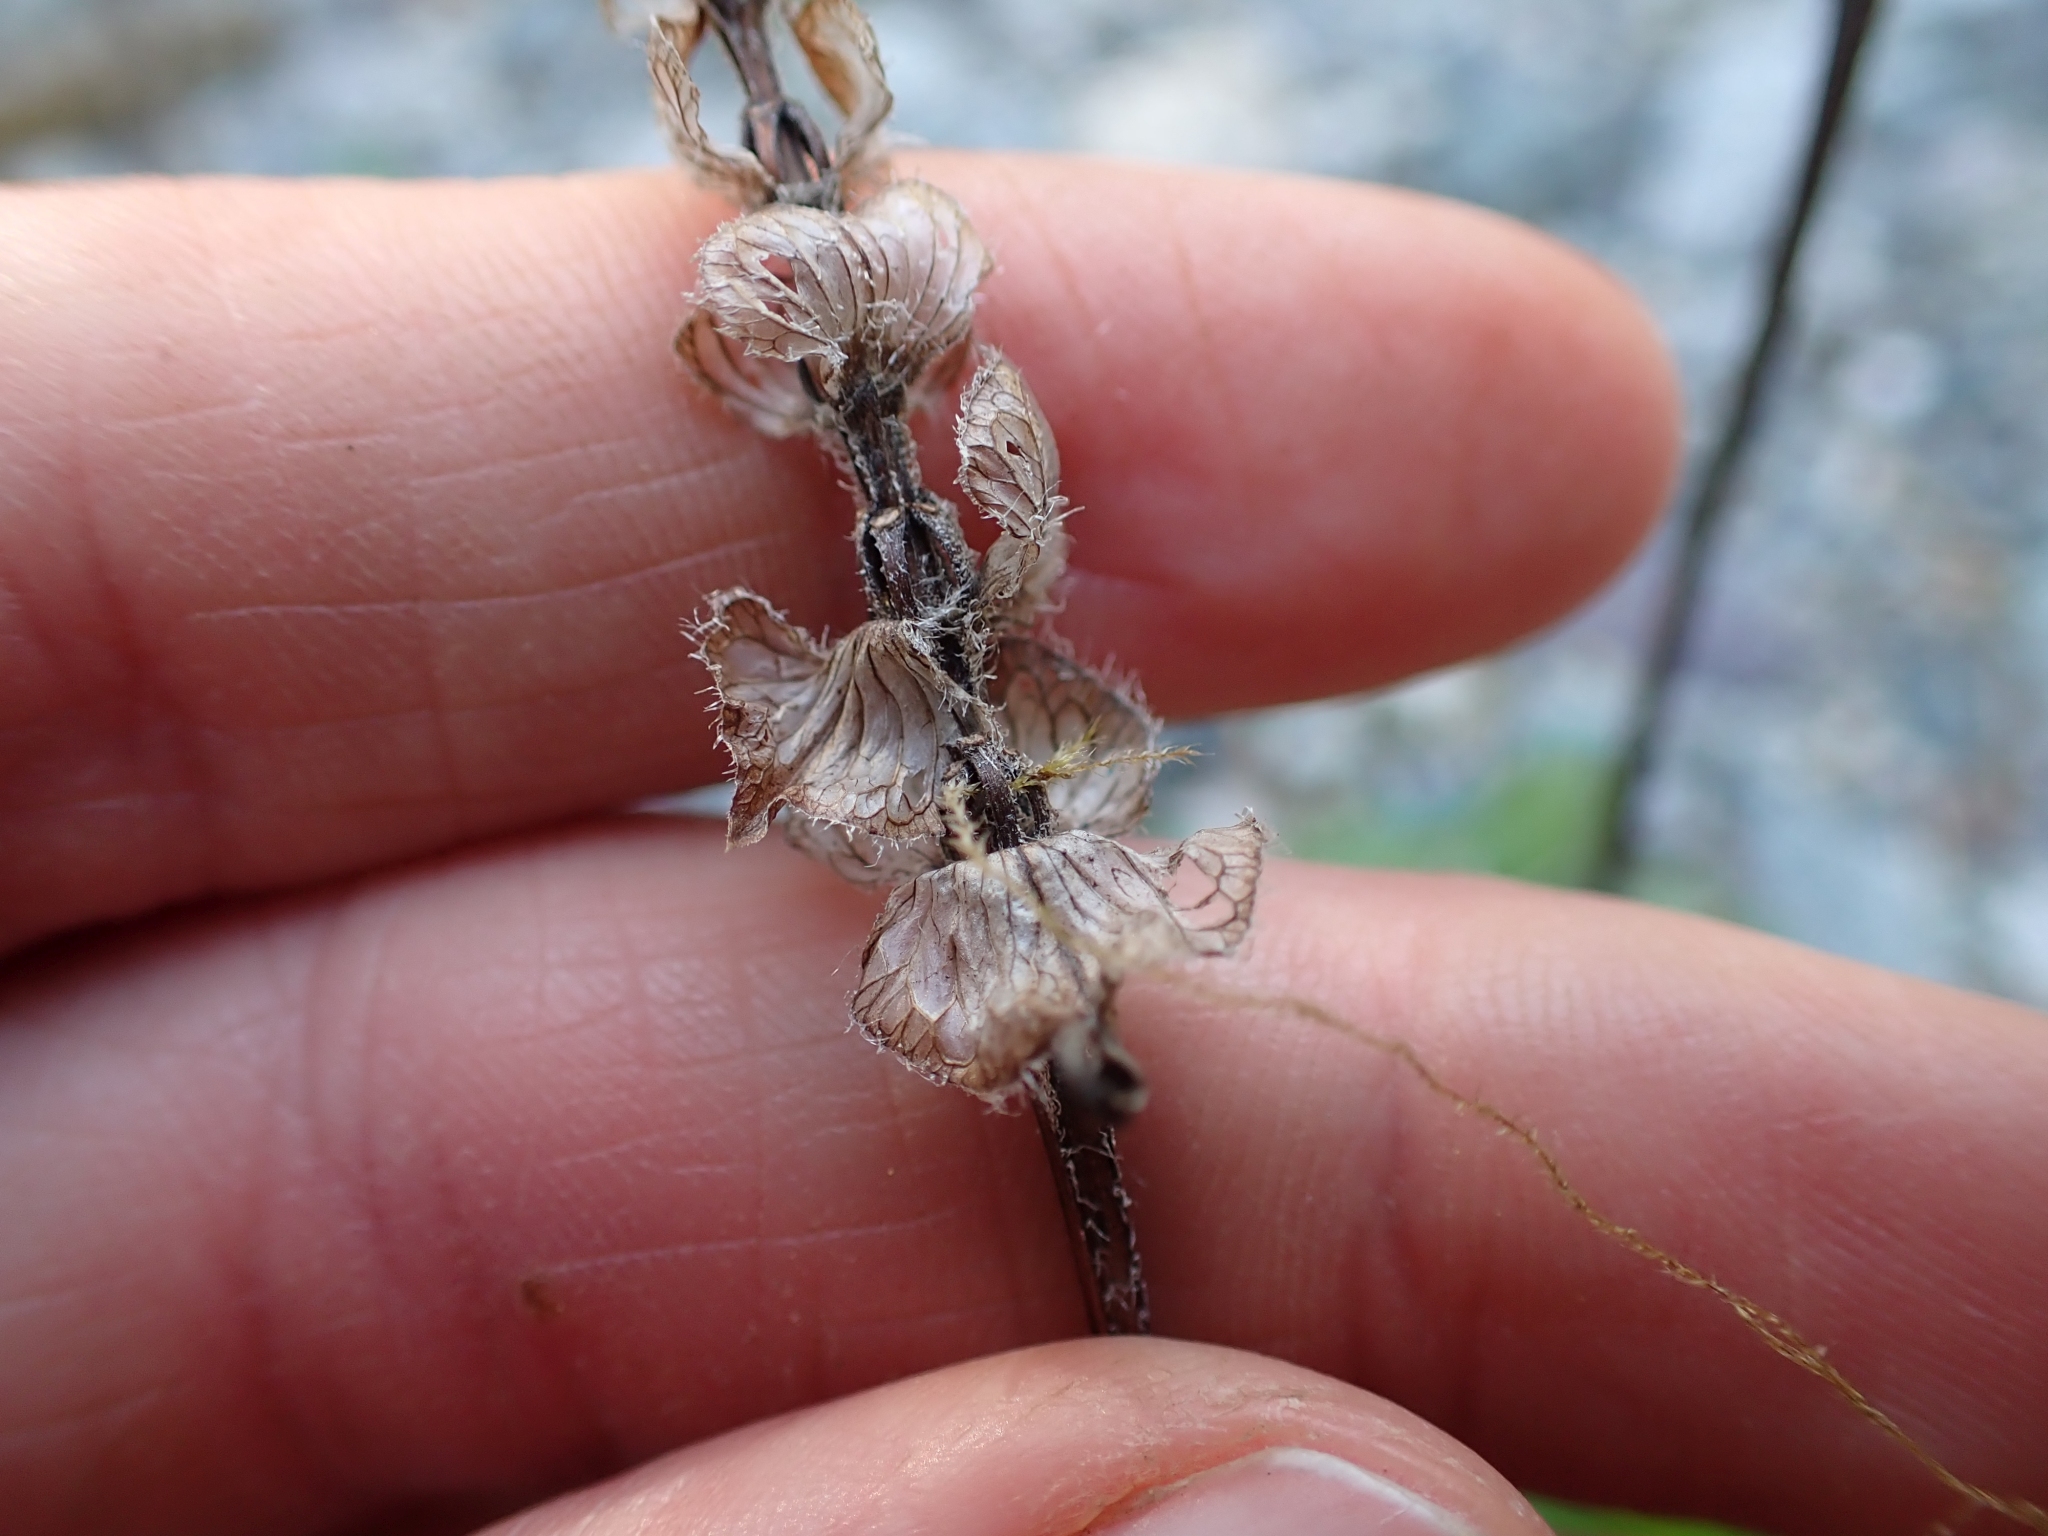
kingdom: Plantae
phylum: Tracheophyta
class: Magnoliopsida
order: Lamiales
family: Lamiaceae
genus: Prunella
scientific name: Prunella vulgaris
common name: Heal-all
